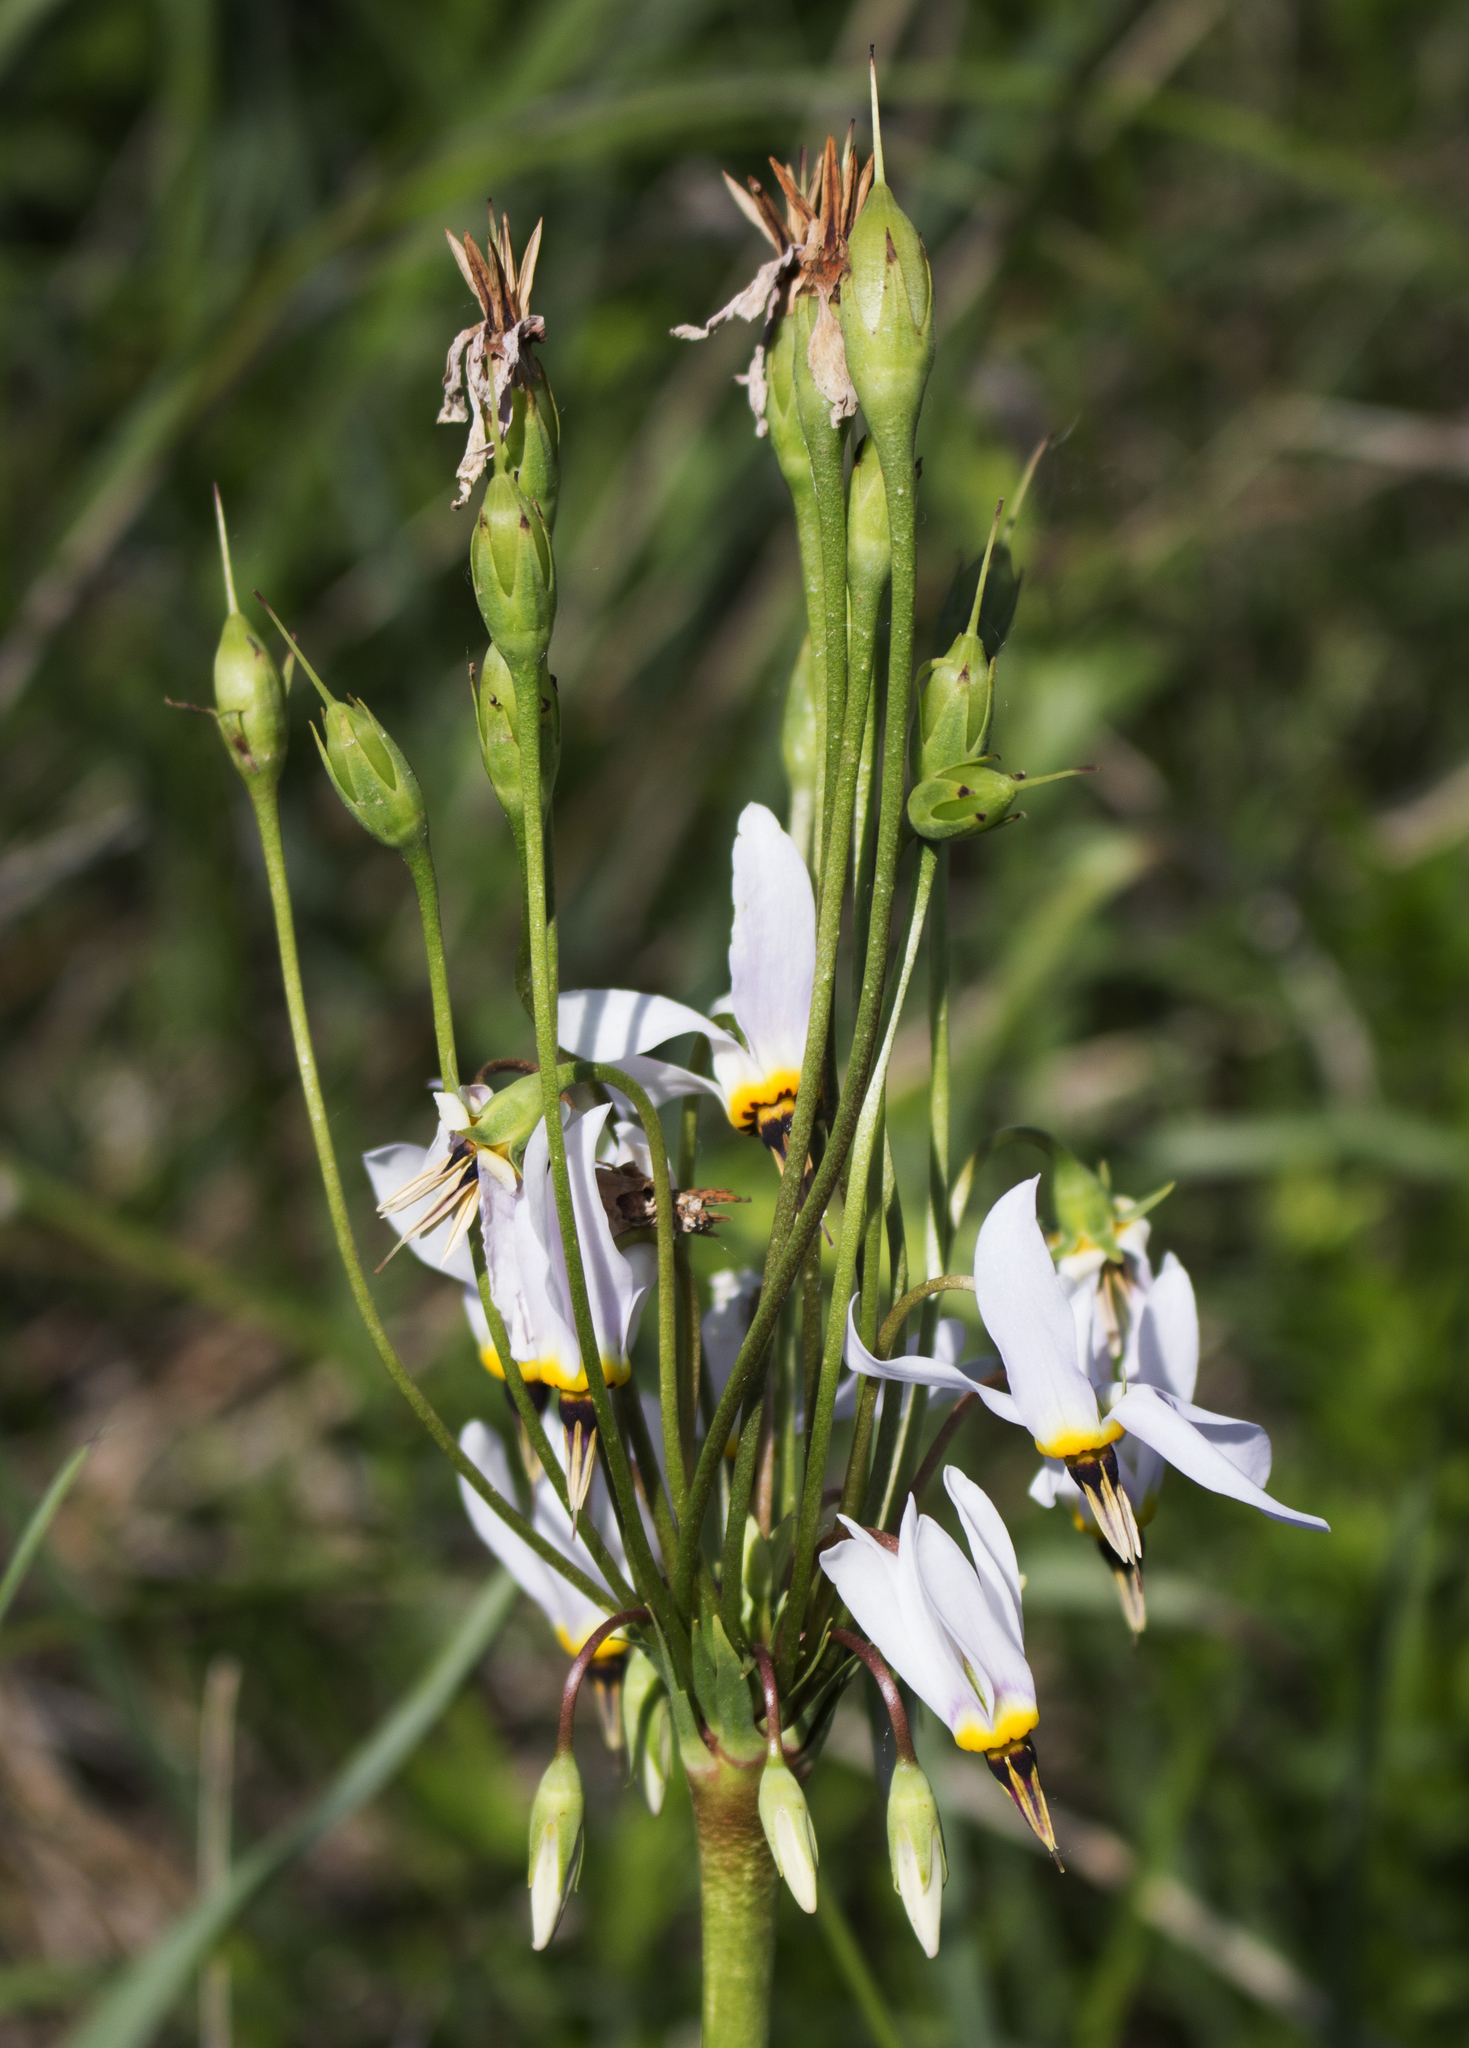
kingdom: Plantae
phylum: Tracheophyta
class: Magnoliopsida
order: Ericales
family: Primulaceae
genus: Dodecatheon
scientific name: Dodecatheon meadia
